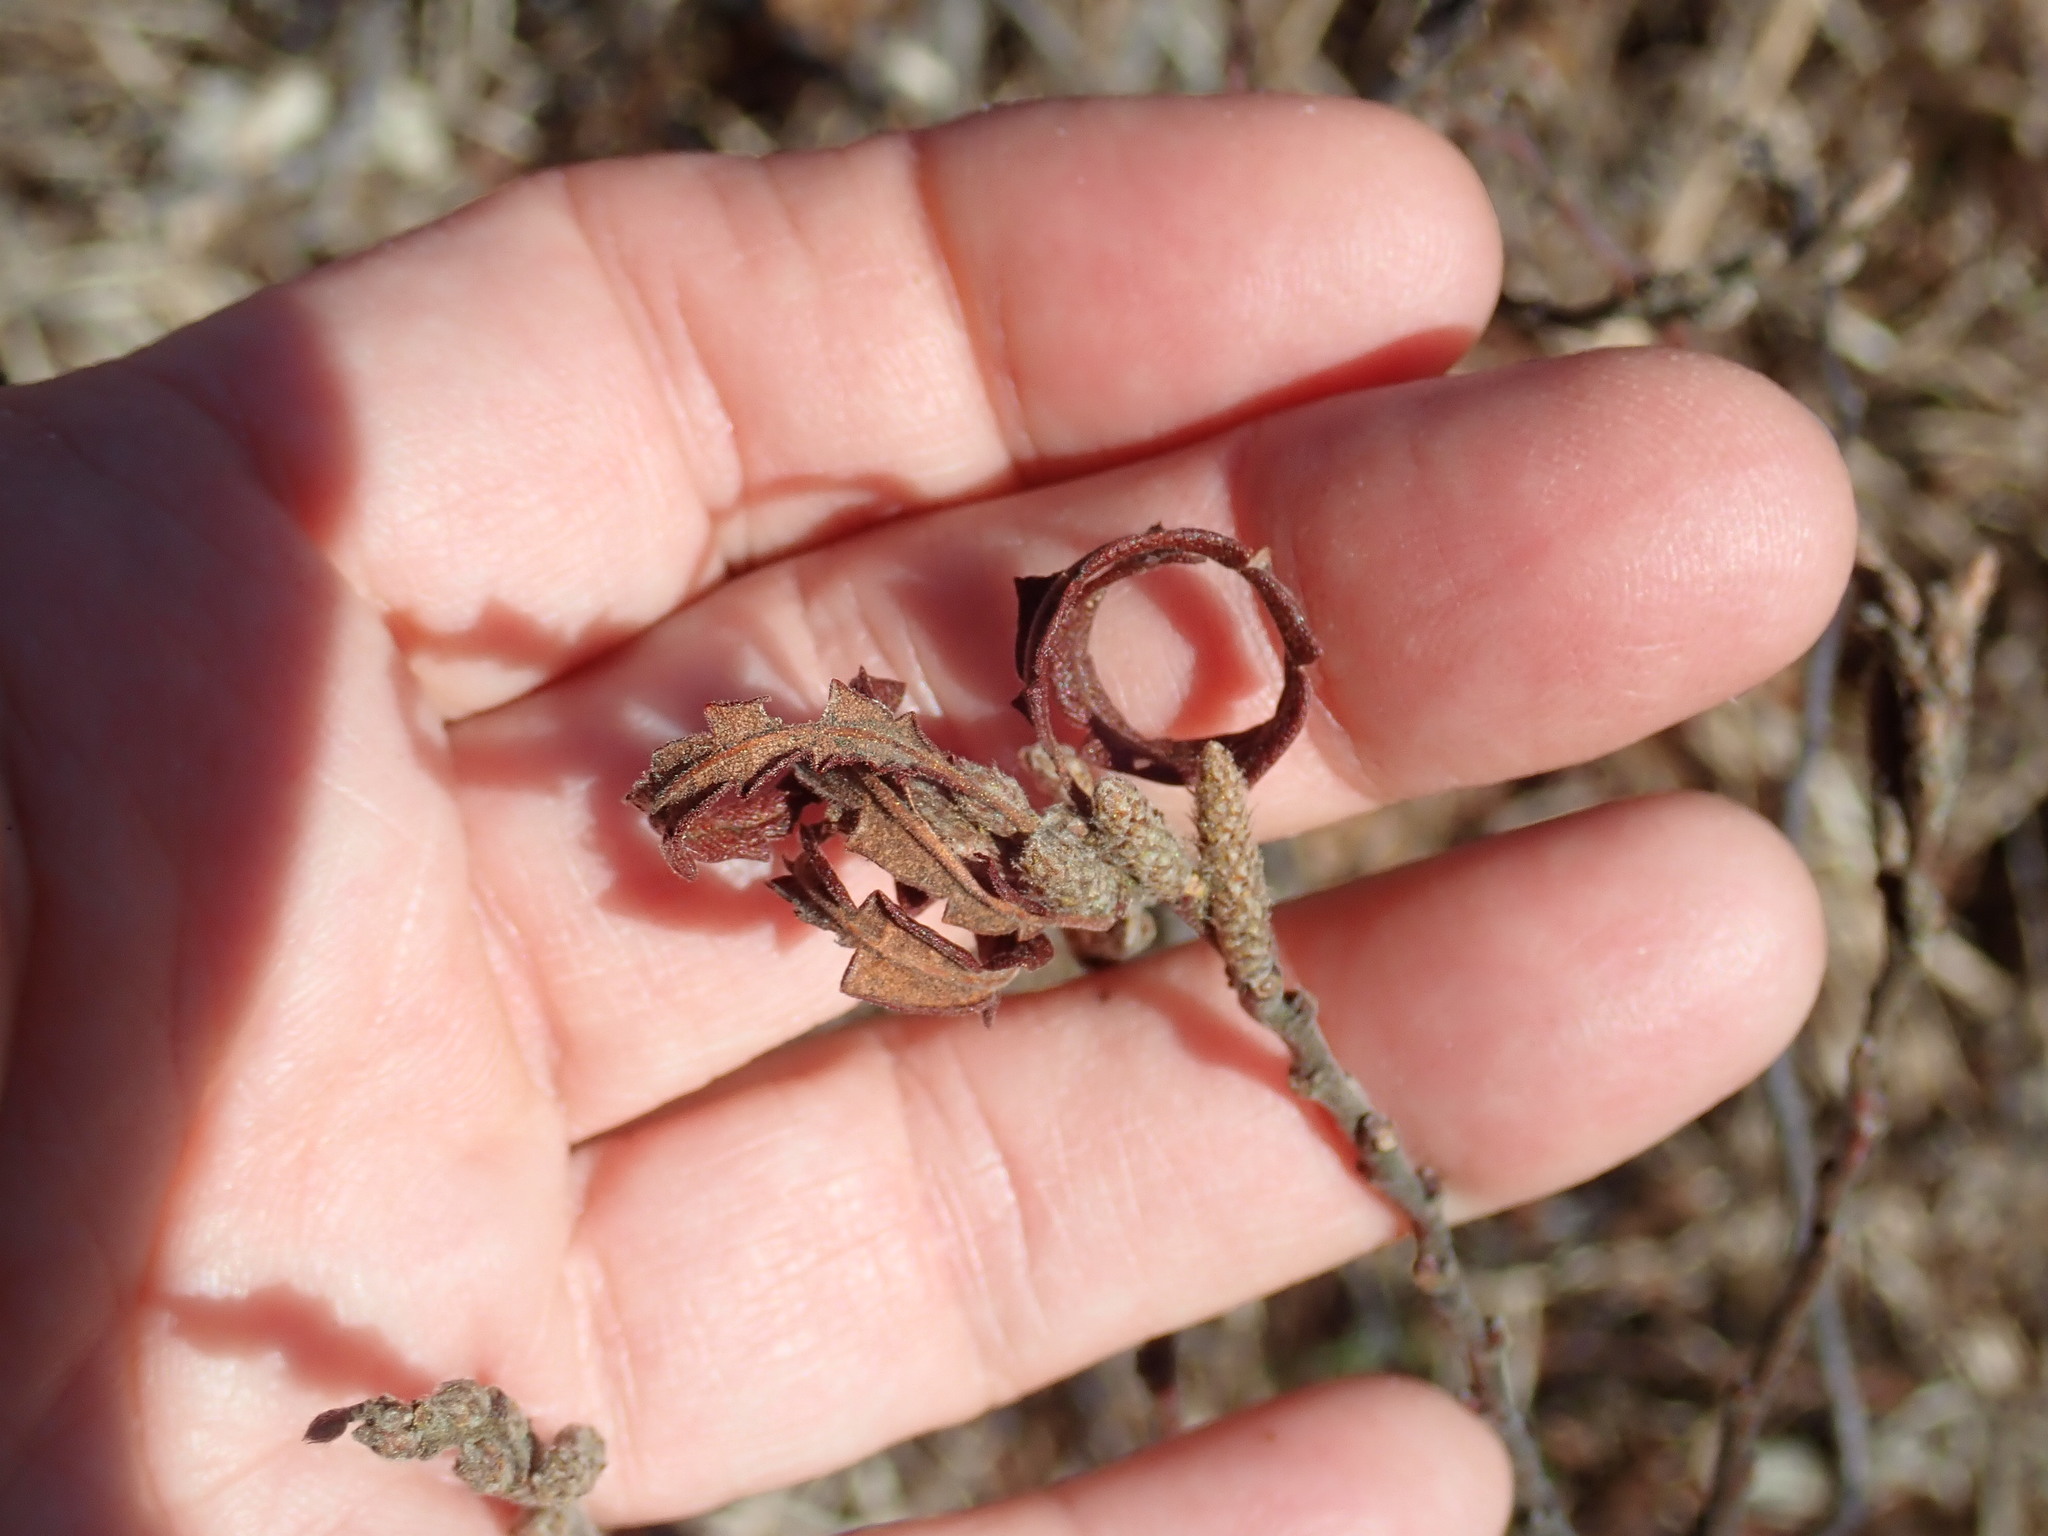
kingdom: Plantae
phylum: Tracheophyta
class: Magnoliopsida
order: Fagales
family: Myricaceae
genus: Comptonia
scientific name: Comptonia peregrina
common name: Sweet-fern
